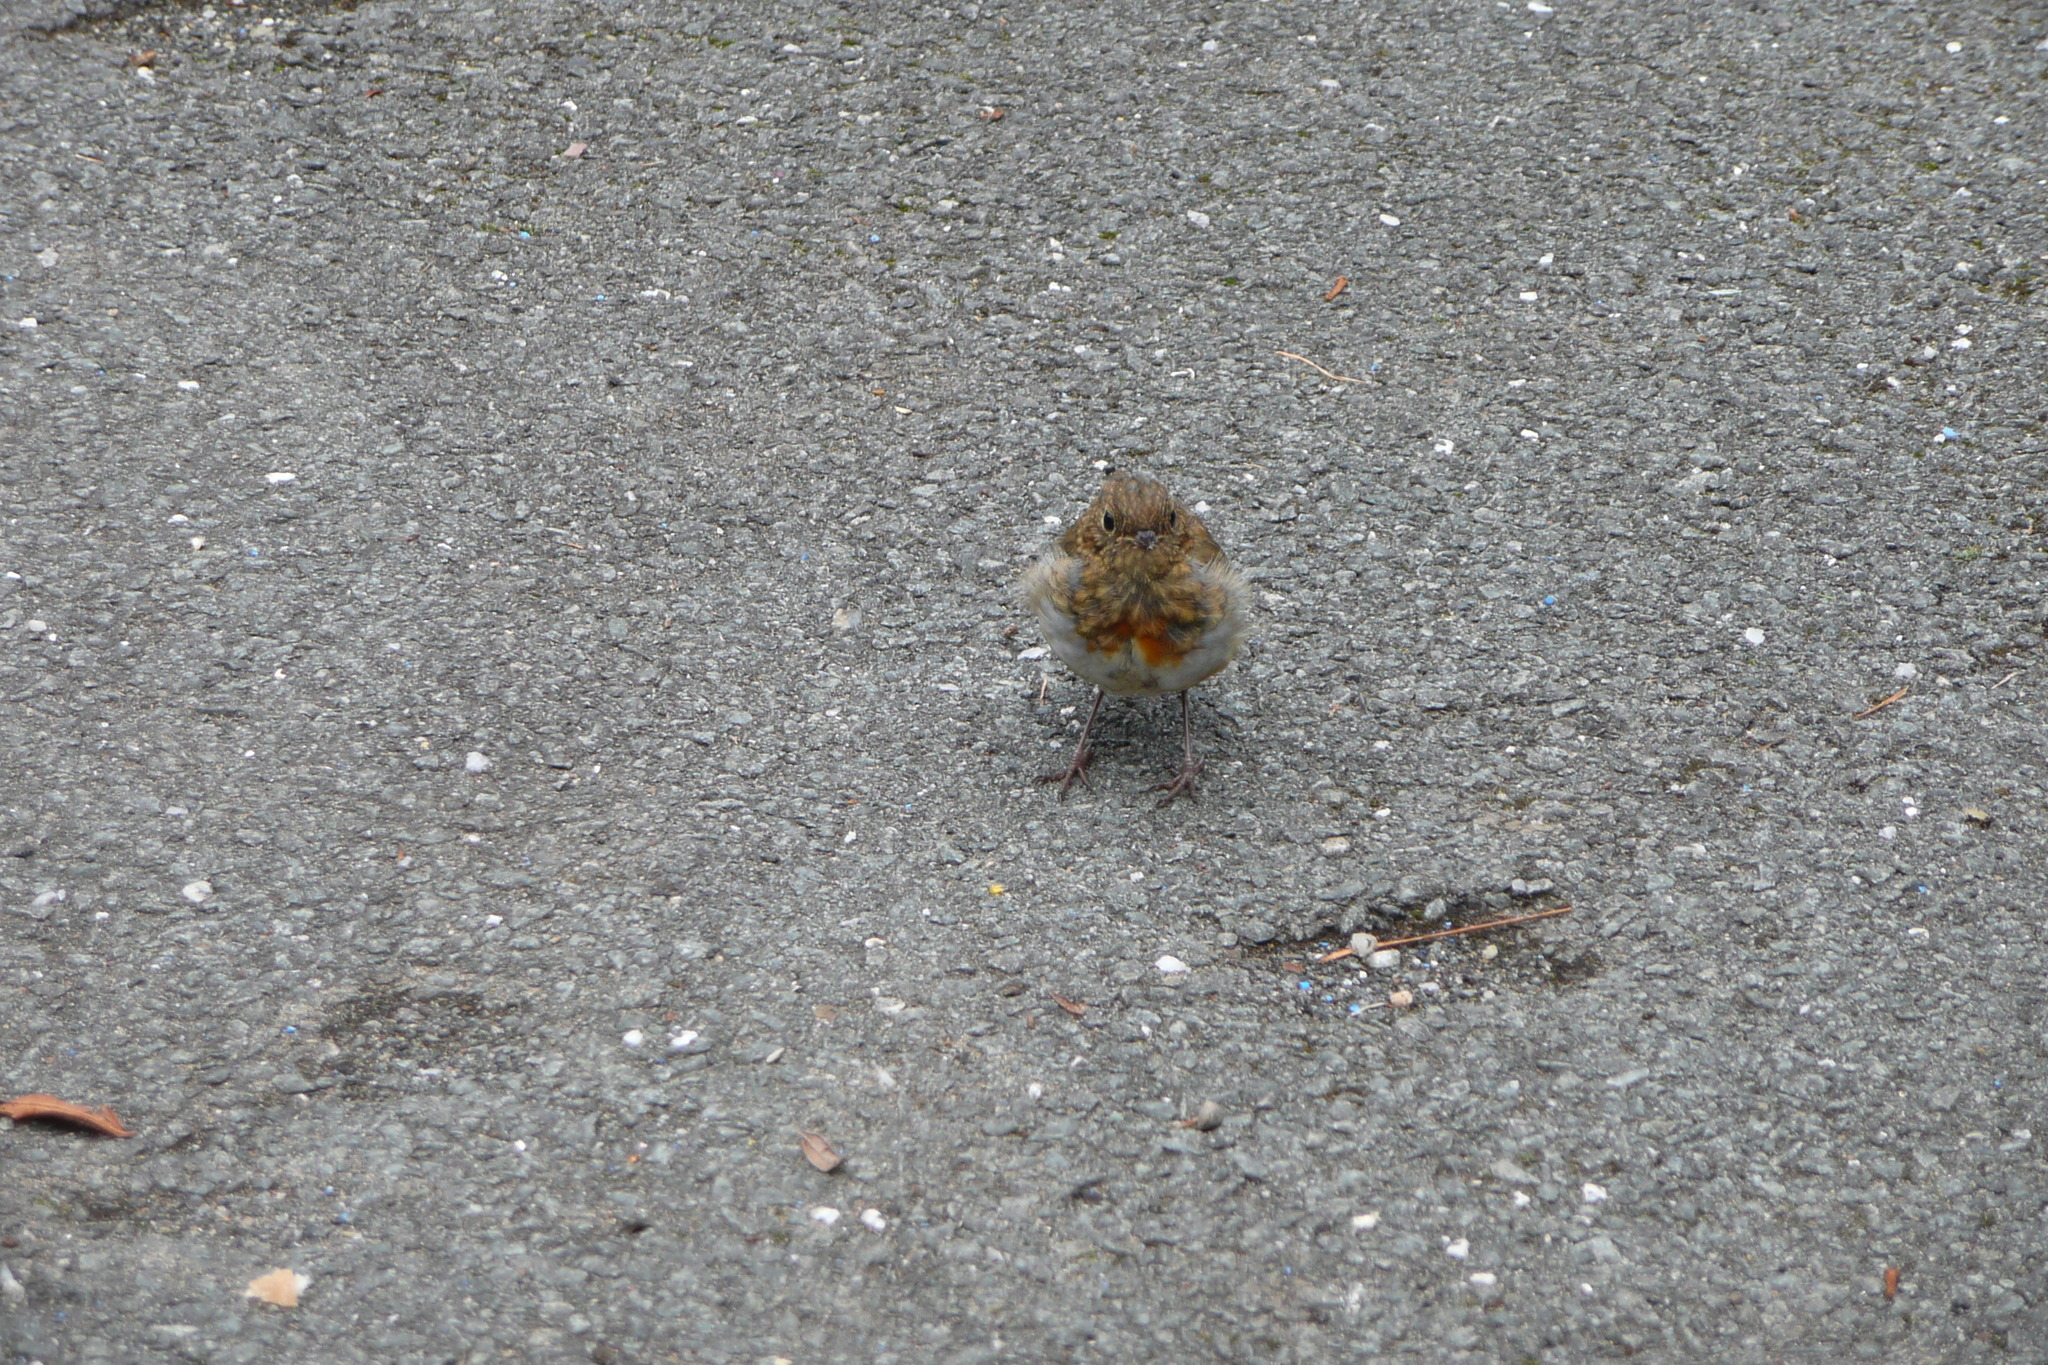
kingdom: Animalia
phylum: Chordata
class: Aves
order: Passeriformes
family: Muscicapidae
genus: Erithacus
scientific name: Erithacus rubecula
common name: European robin
